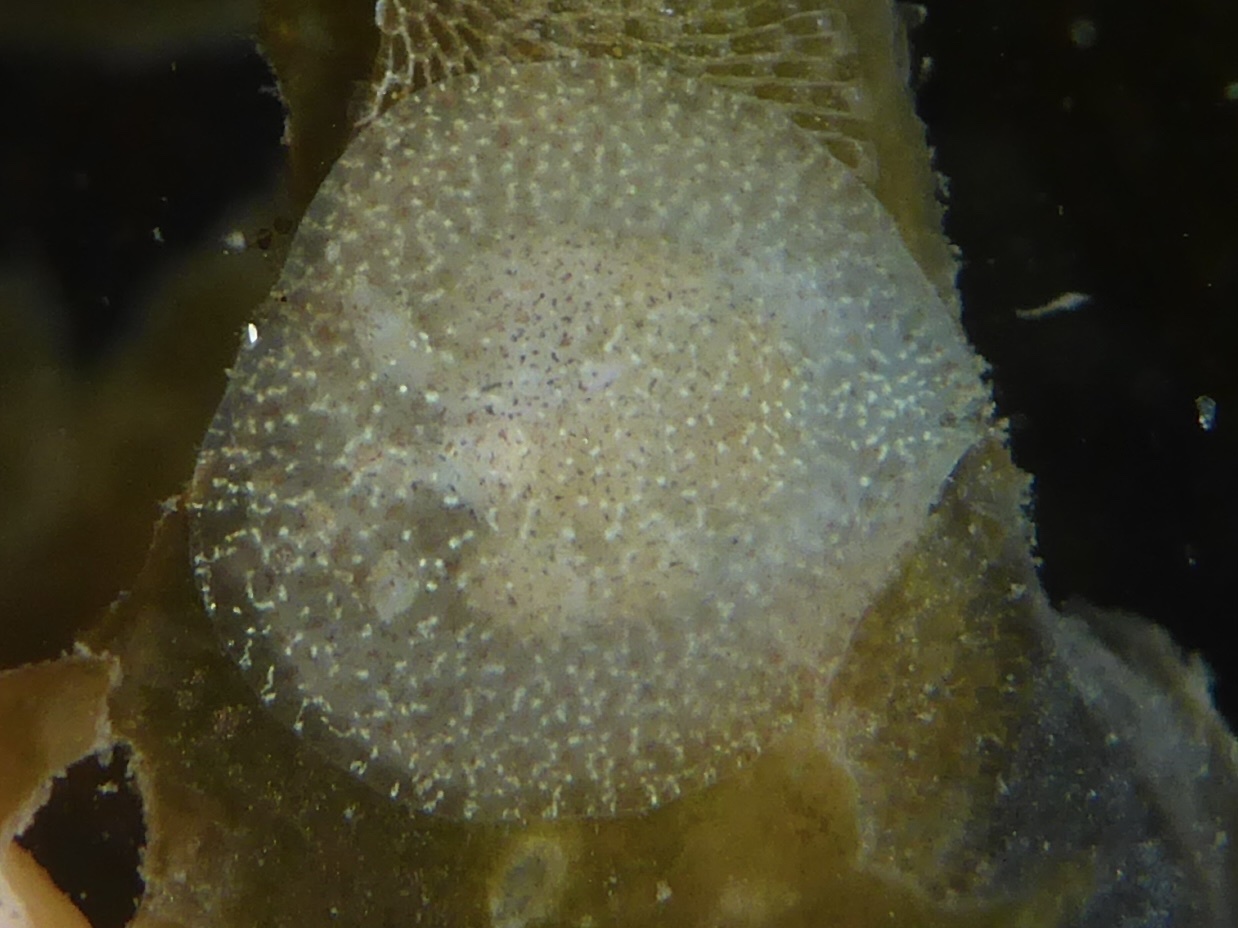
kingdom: Animalia
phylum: Mollusca
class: Gastropoda
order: Nudibranchia
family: Corambidae
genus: Corambe
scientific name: Corambe pacifica
